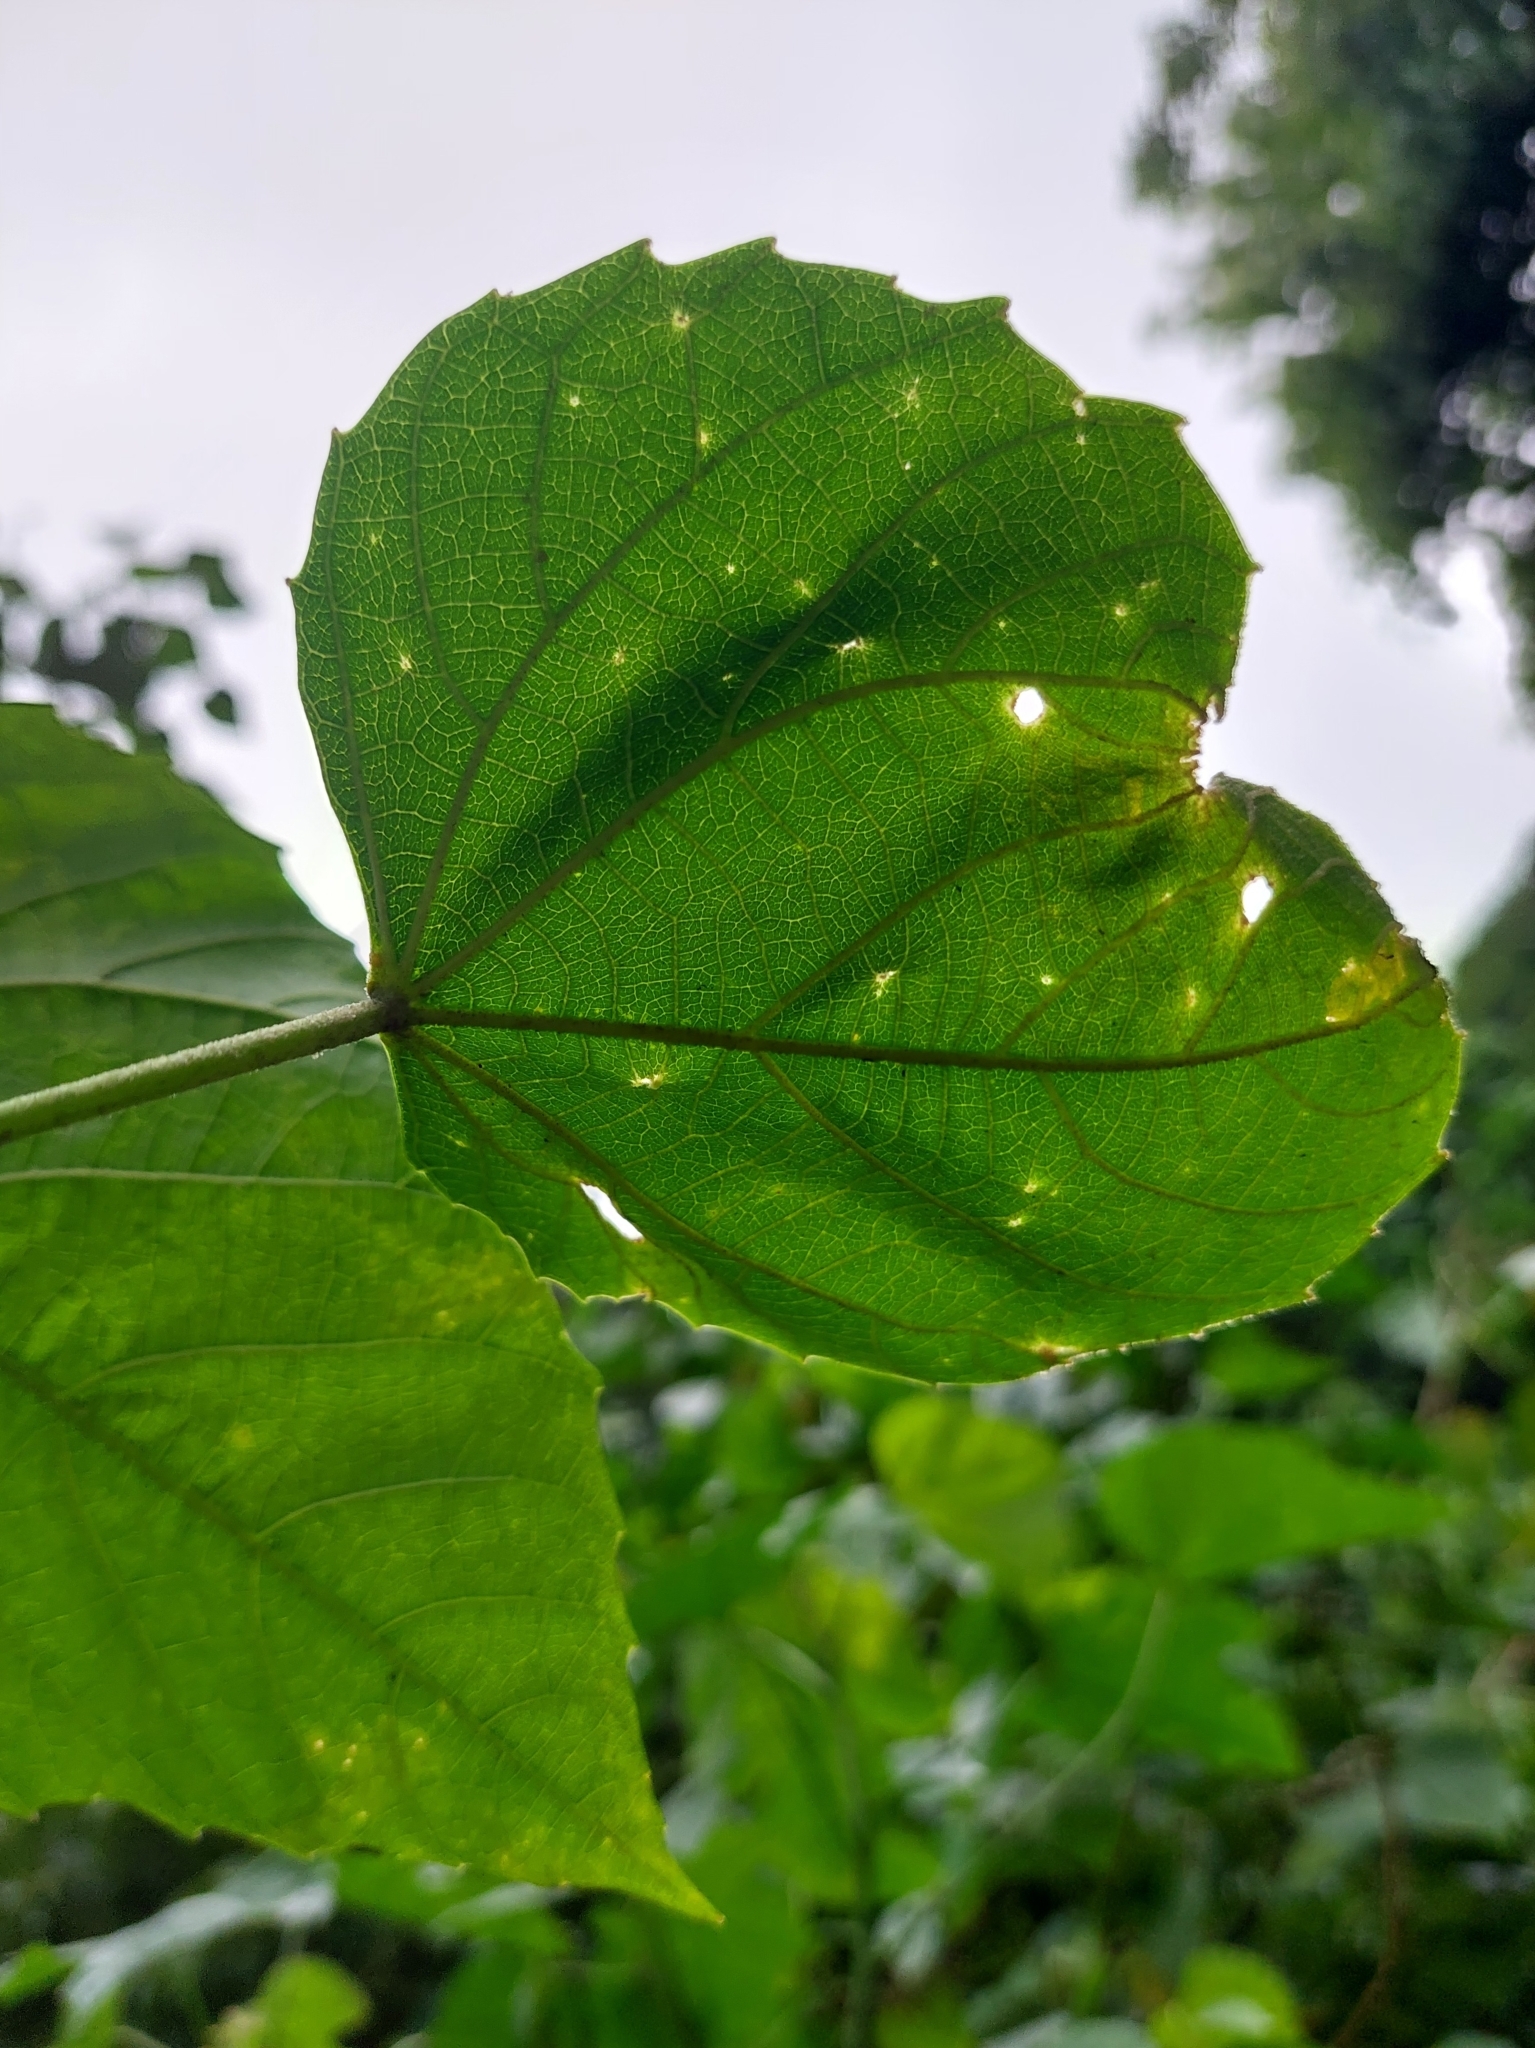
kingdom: Plantae
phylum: Tracheophyta
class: Magnoliopsida
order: Malpighiales
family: Euphorbiaceae
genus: Melanolepis
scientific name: Melanolepis multiglandulosa
